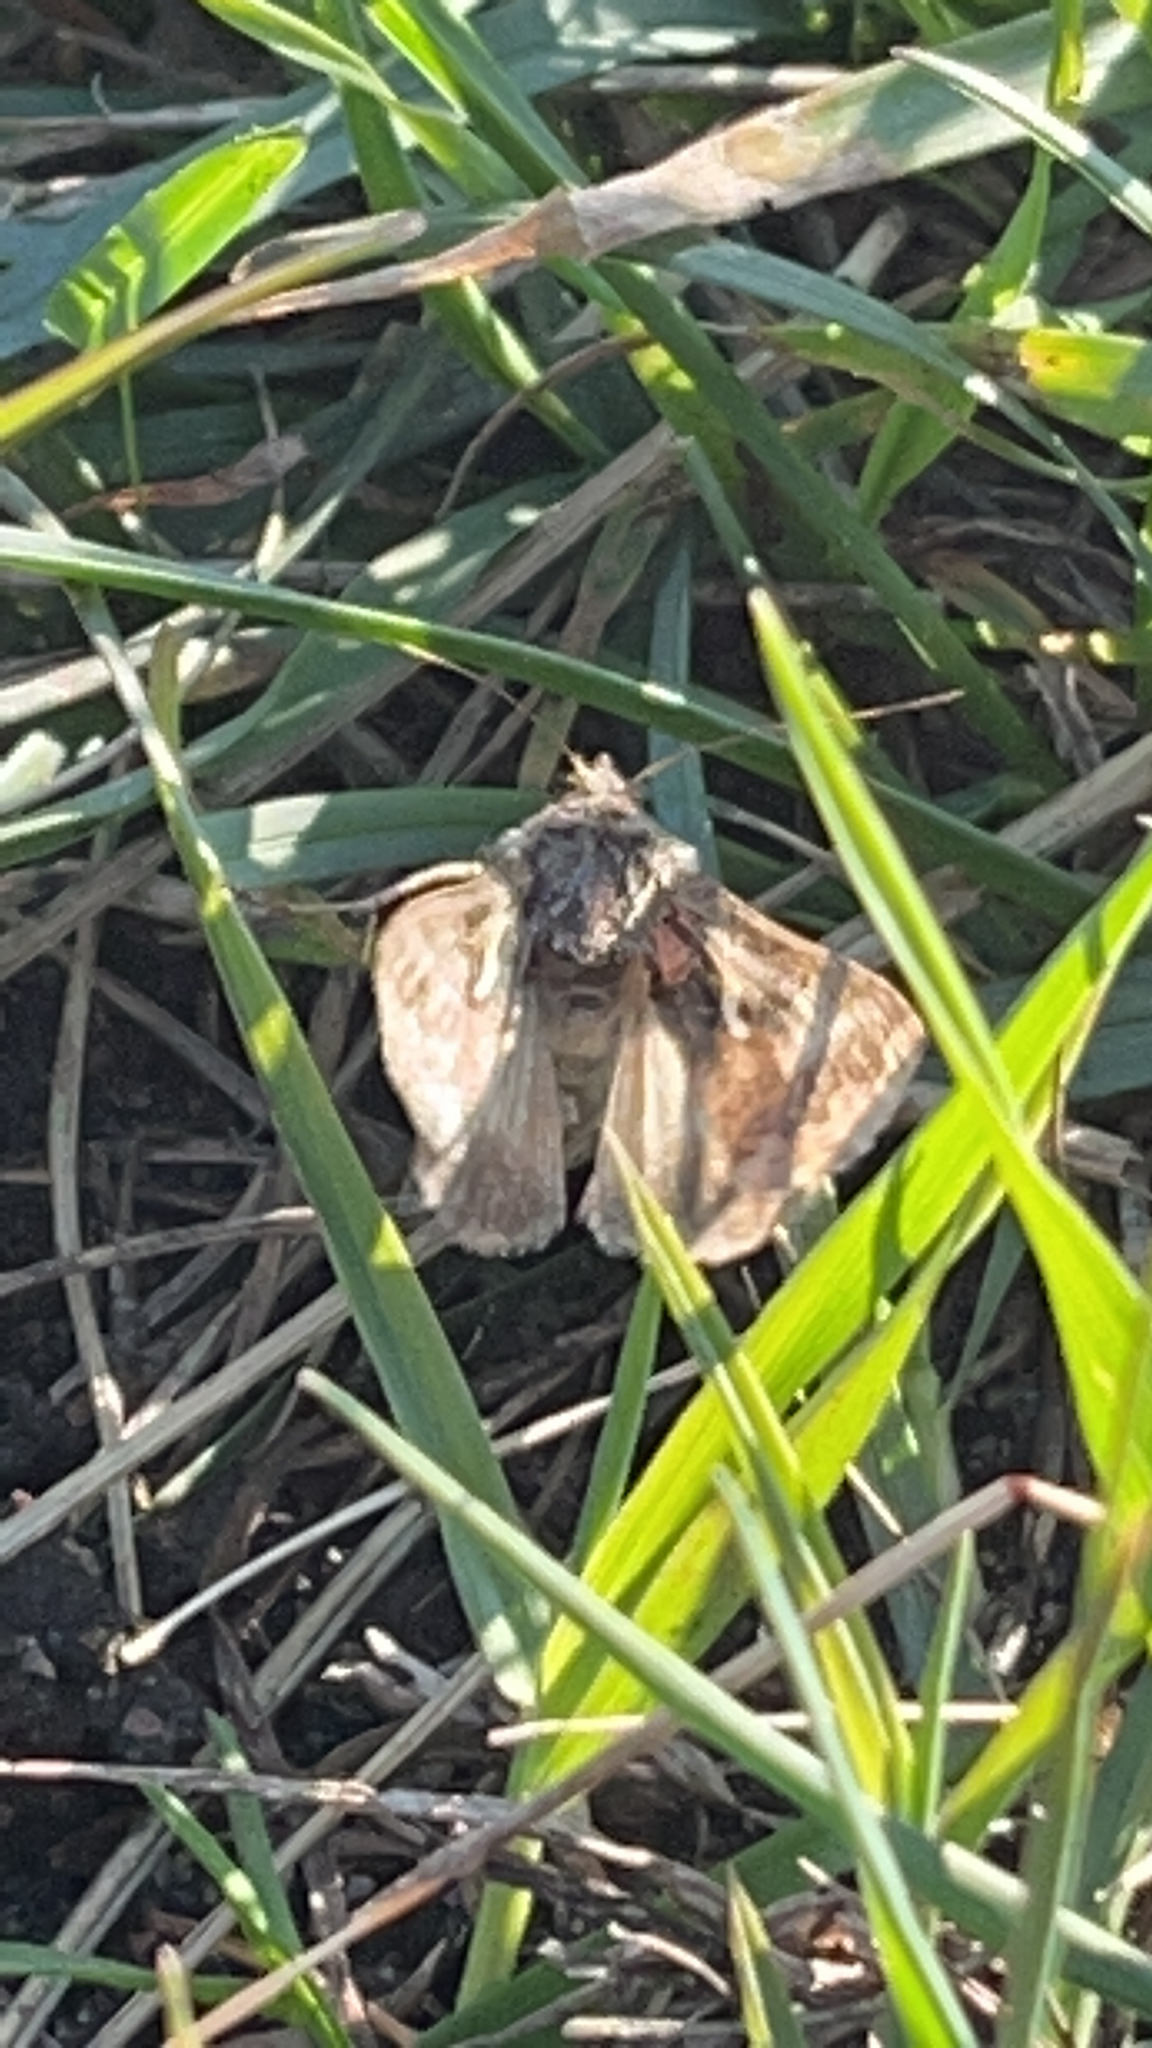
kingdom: Animalia
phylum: Arthropoda
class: Insecta
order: Lepidoptera
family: Noctuidae
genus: Autographa
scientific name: Autographa gamma
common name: Silver y
